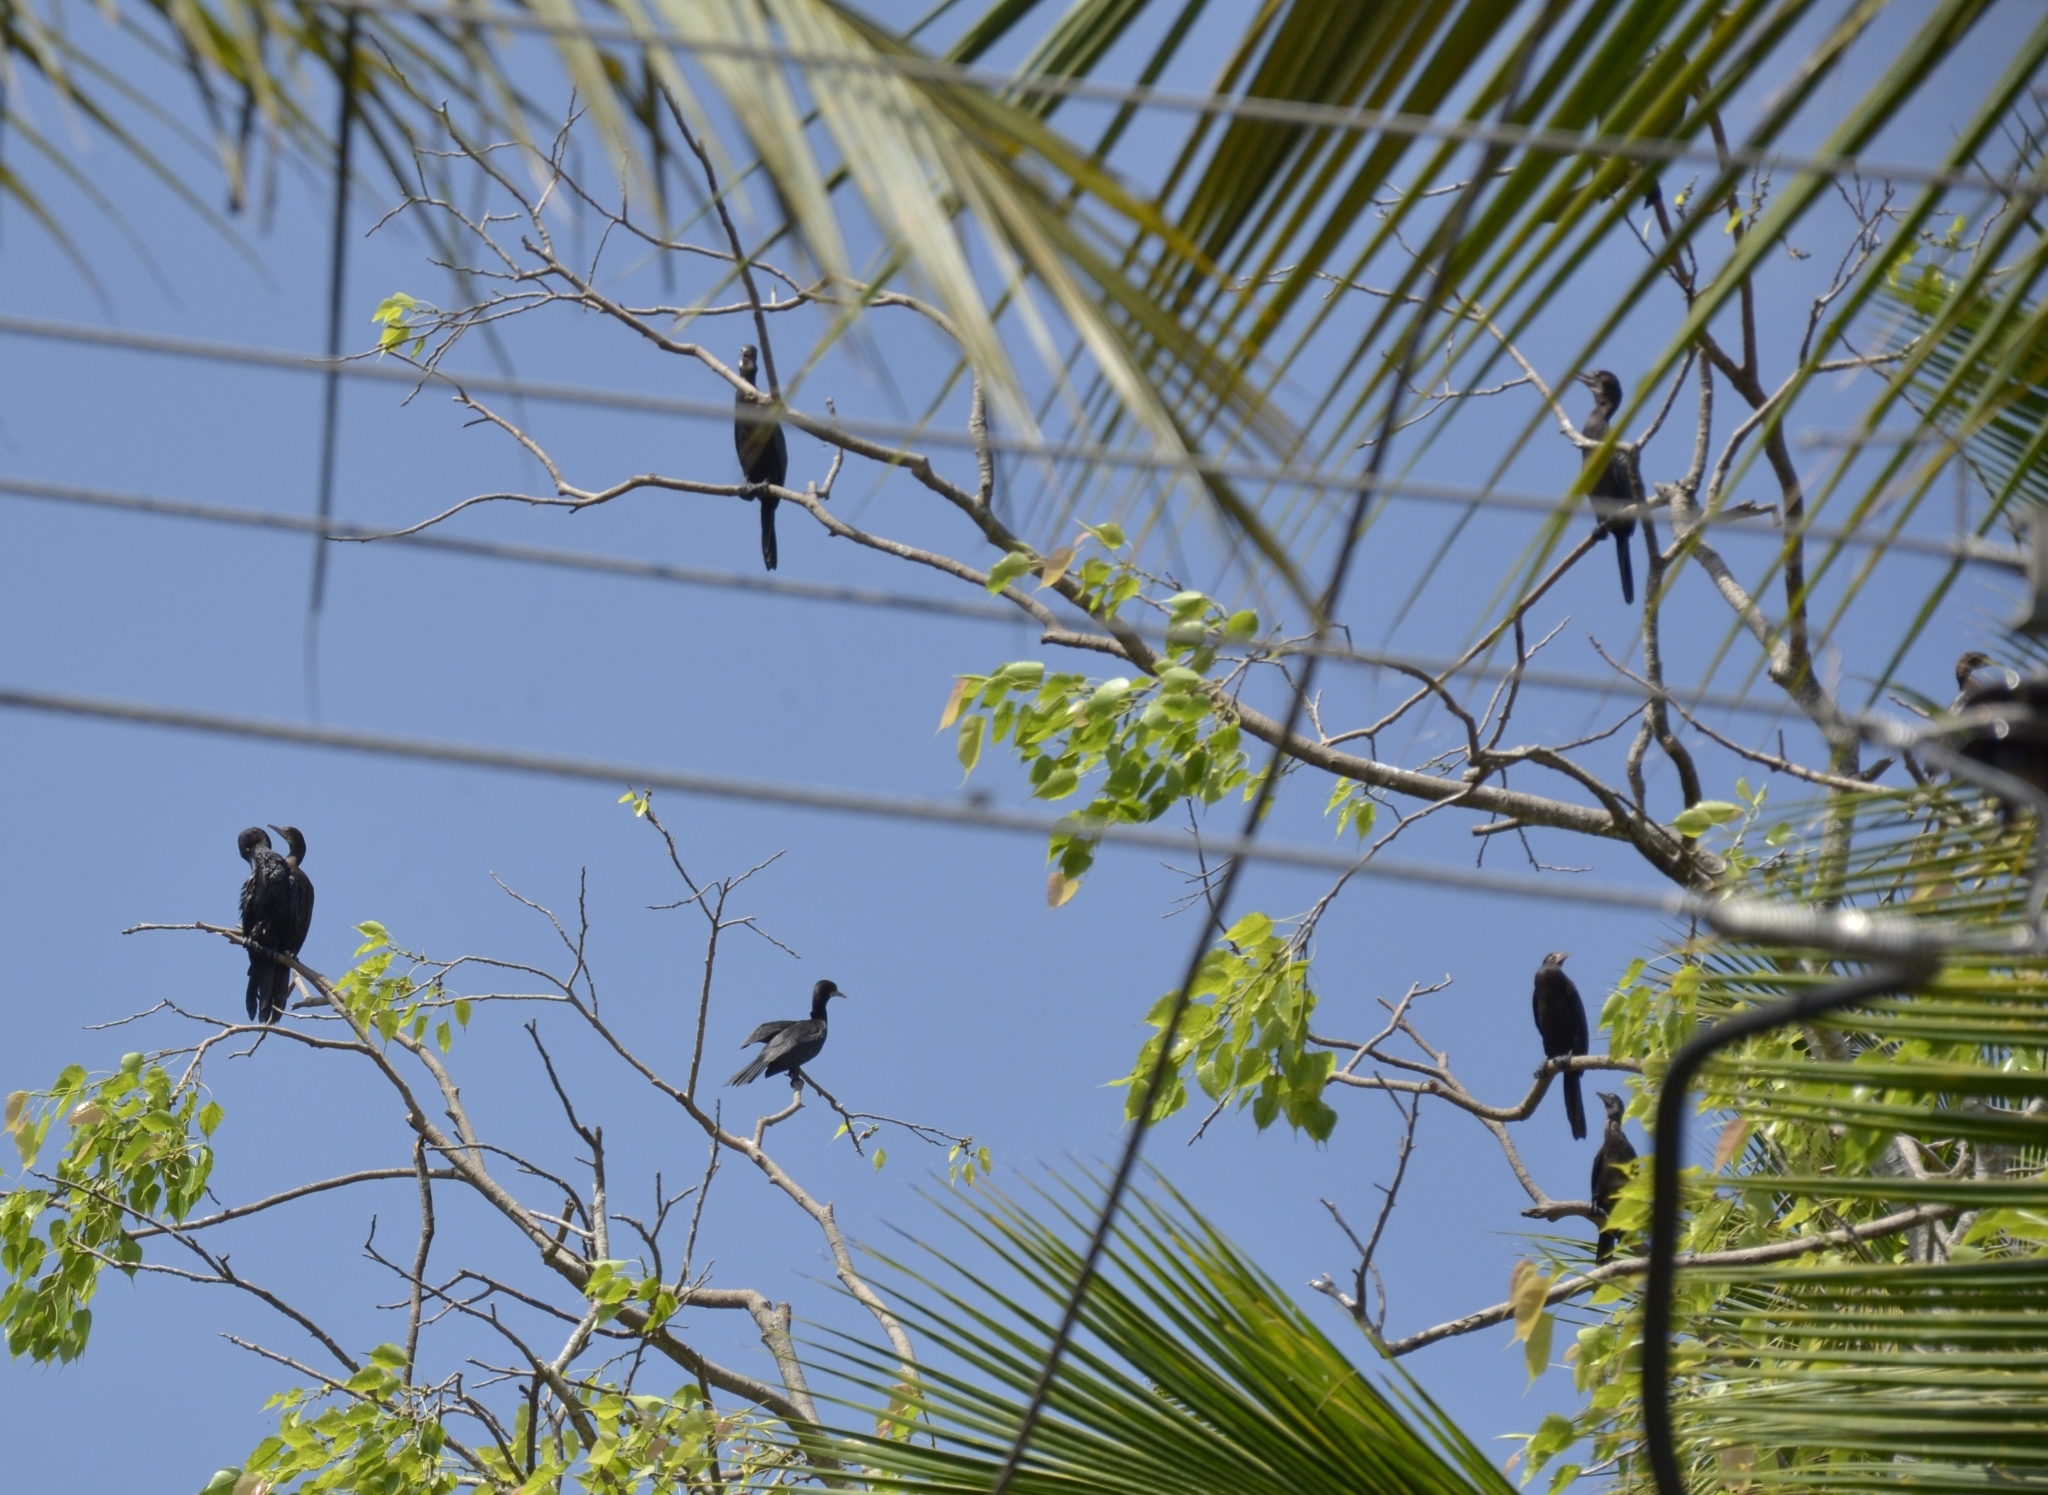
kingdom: Animalia
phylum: Chordata
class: Aves
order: Suliformes
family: Phalacrocoracidae
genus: Microcarbo
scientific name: Microcarbo niger
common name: Little cormorant
